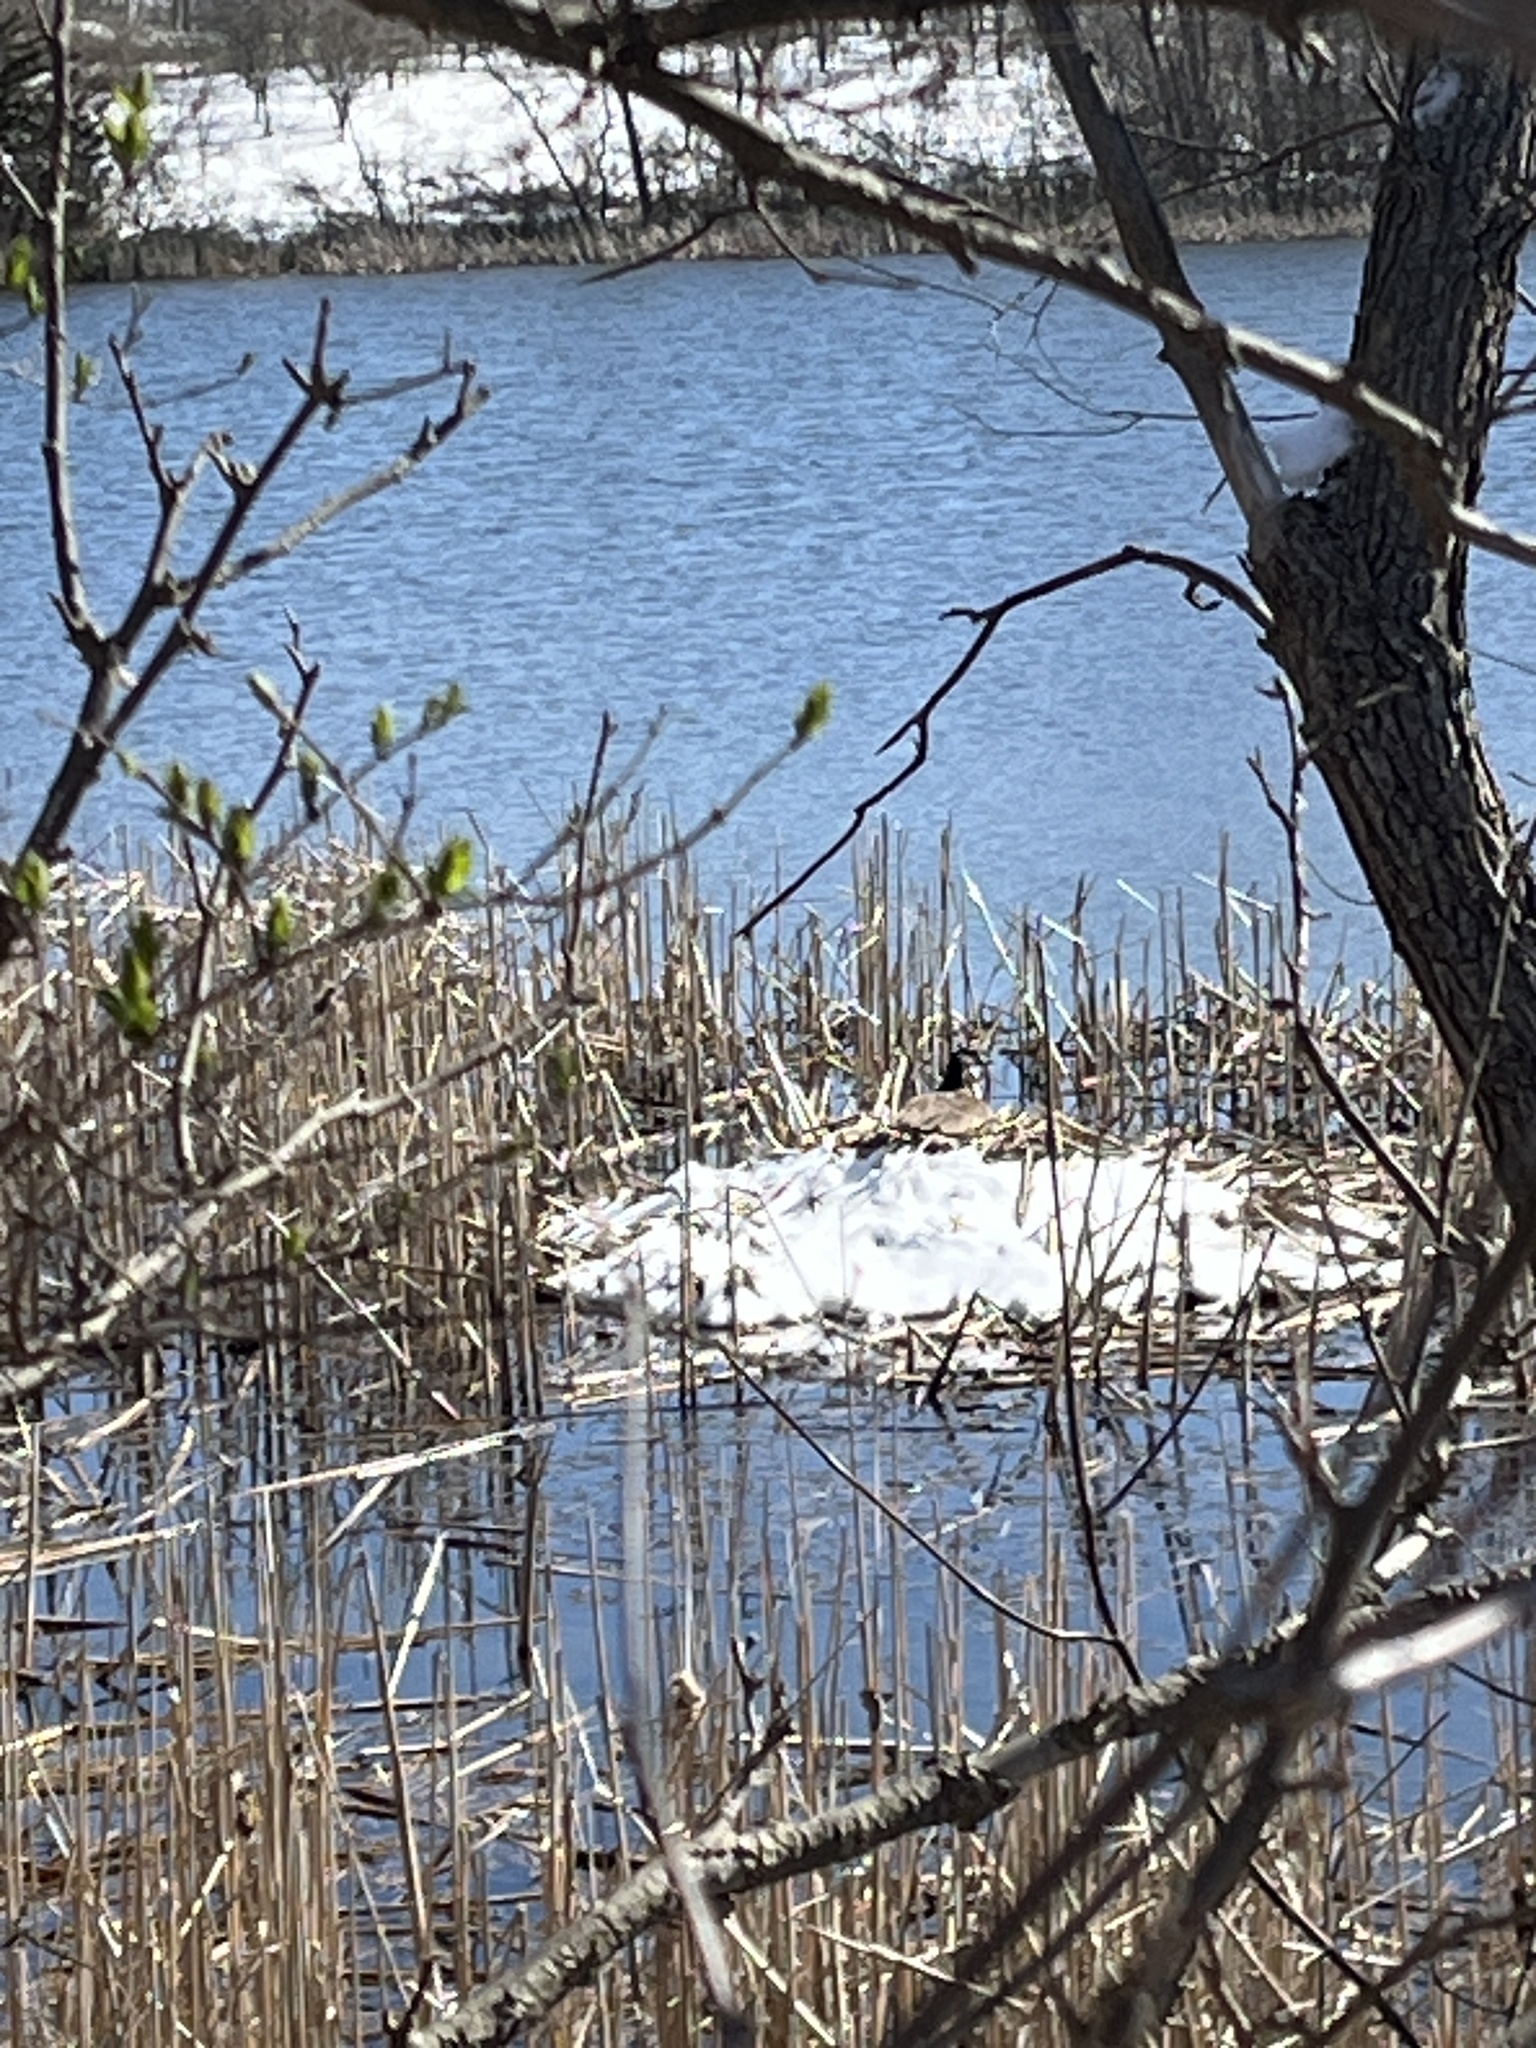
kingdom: Animalia
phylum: Chordata
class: Aves
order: Anseriformes
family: Anatidae
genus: Branta
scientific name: Branta canadensis
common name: Canada goose
